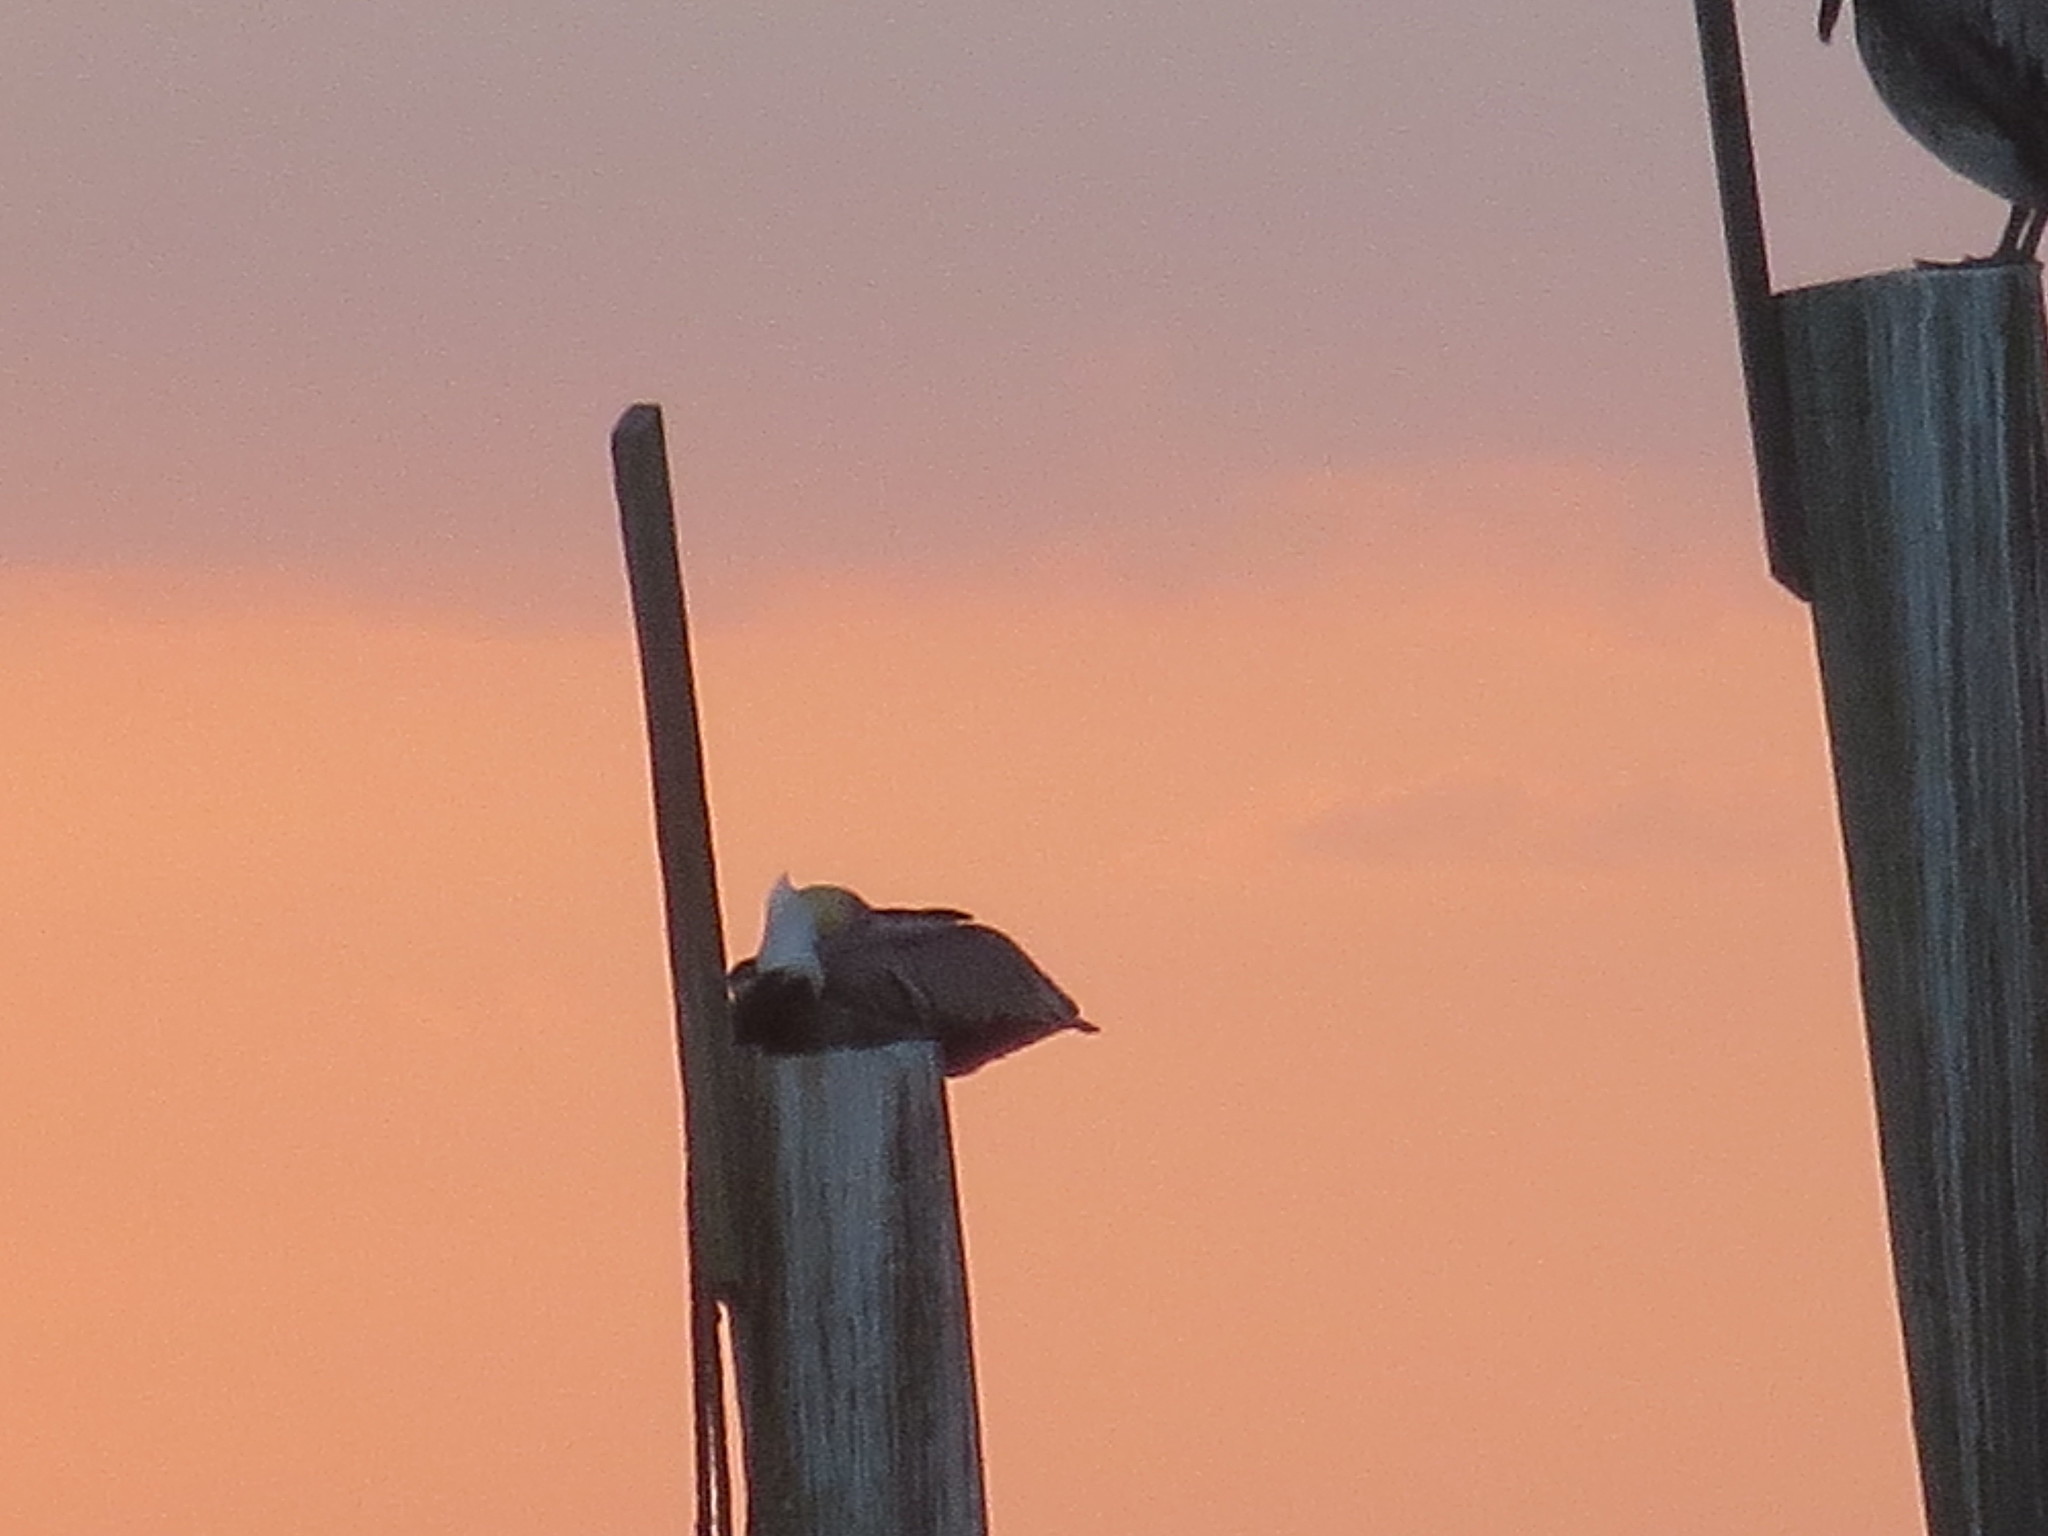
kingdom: Animalia
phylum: Chordata
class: Aves
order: Pelecaniformes
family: Pelecanidae
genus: Pelecanus
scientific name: Pelecanus occidentalis
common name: Brown pelican
